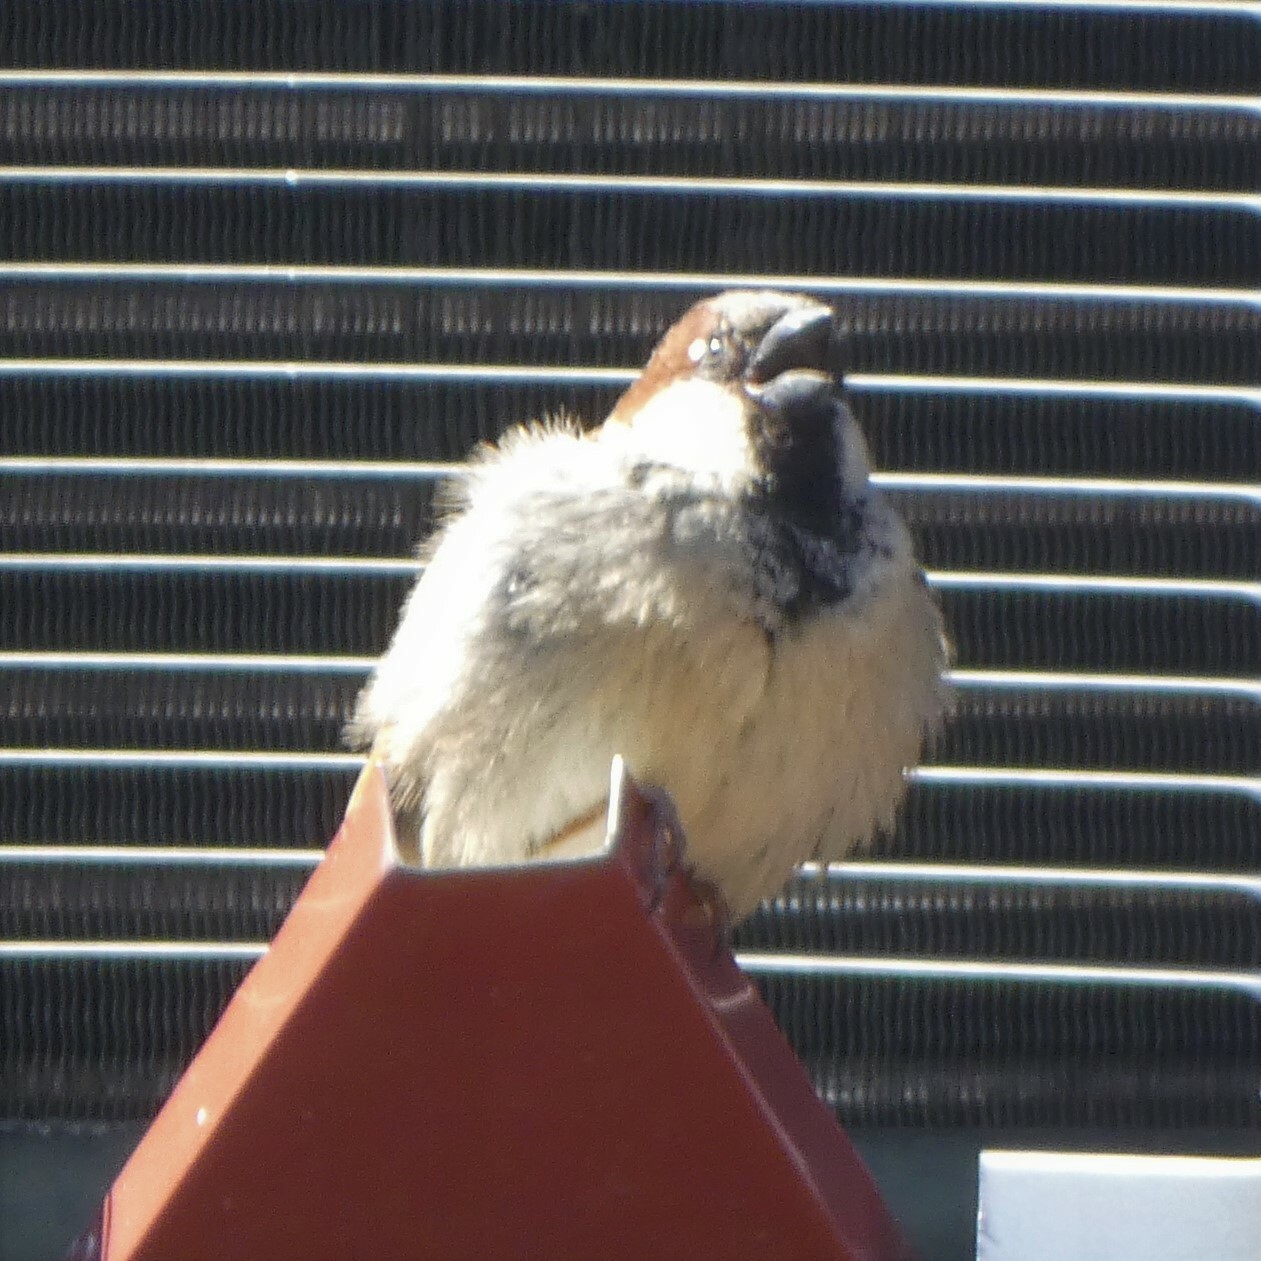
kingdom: Animalia
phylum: Chordata
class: Aves
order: Passeriformes
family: Passeridae
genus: Passer
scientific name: Passer domesticus
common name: House sparrow
